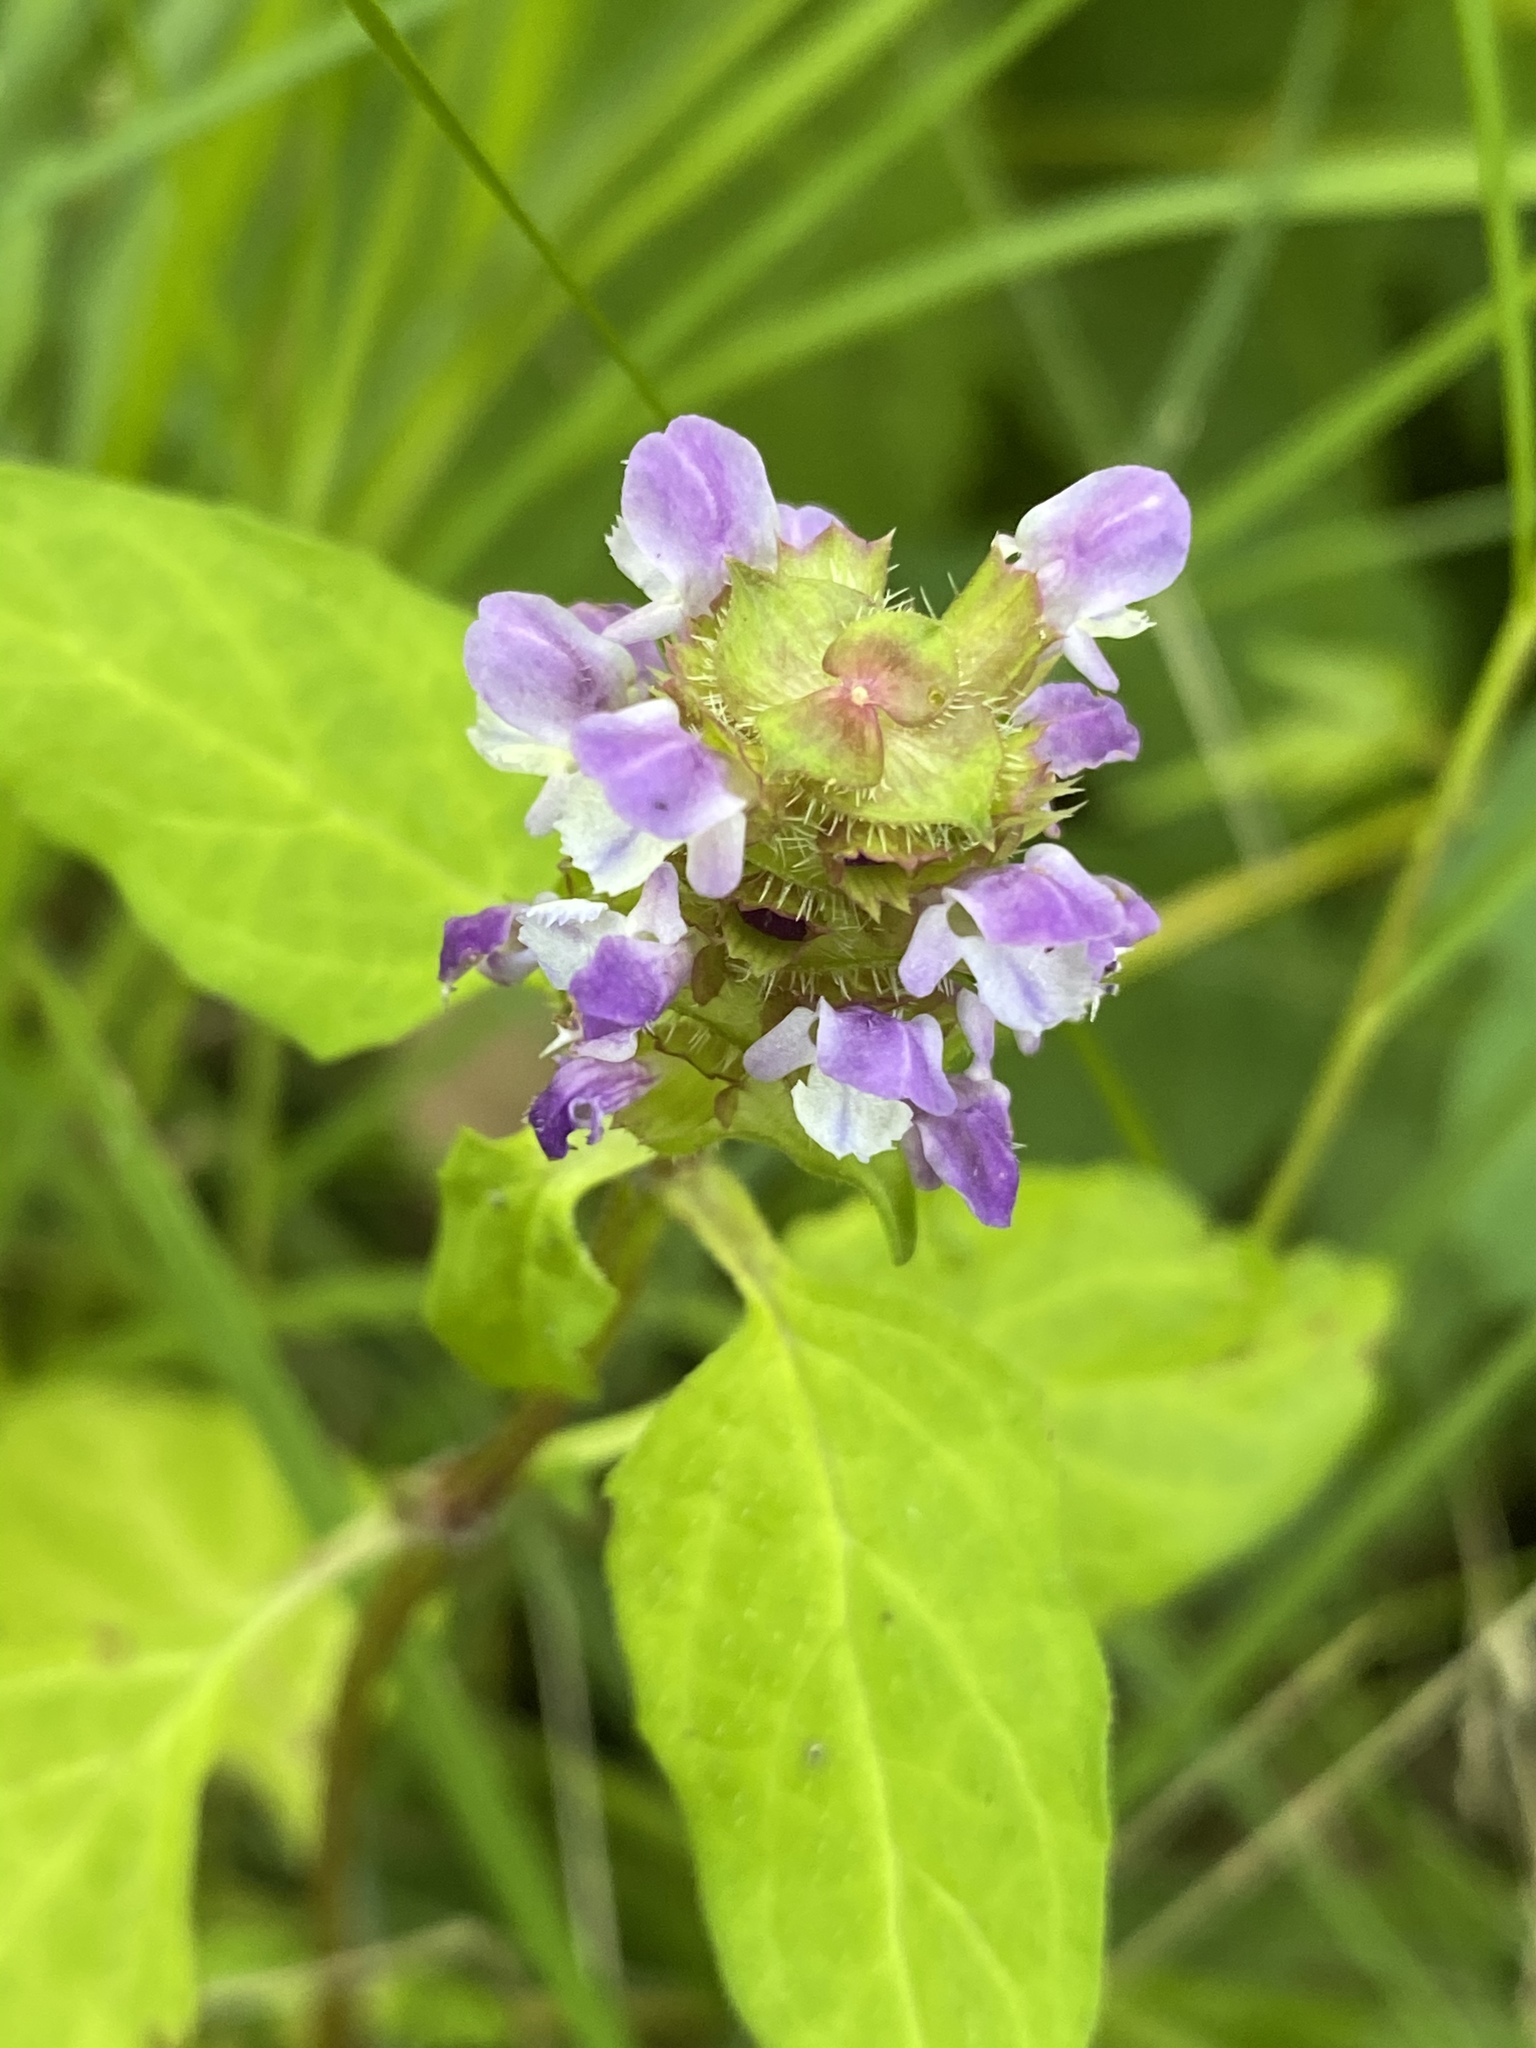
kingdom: Plantae
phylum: Tracheophyta
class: Magnoliopsida
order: Lamiales
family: Lamiaceae
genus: Prunella
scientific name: Prunella vulgaris
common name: Heal-all
